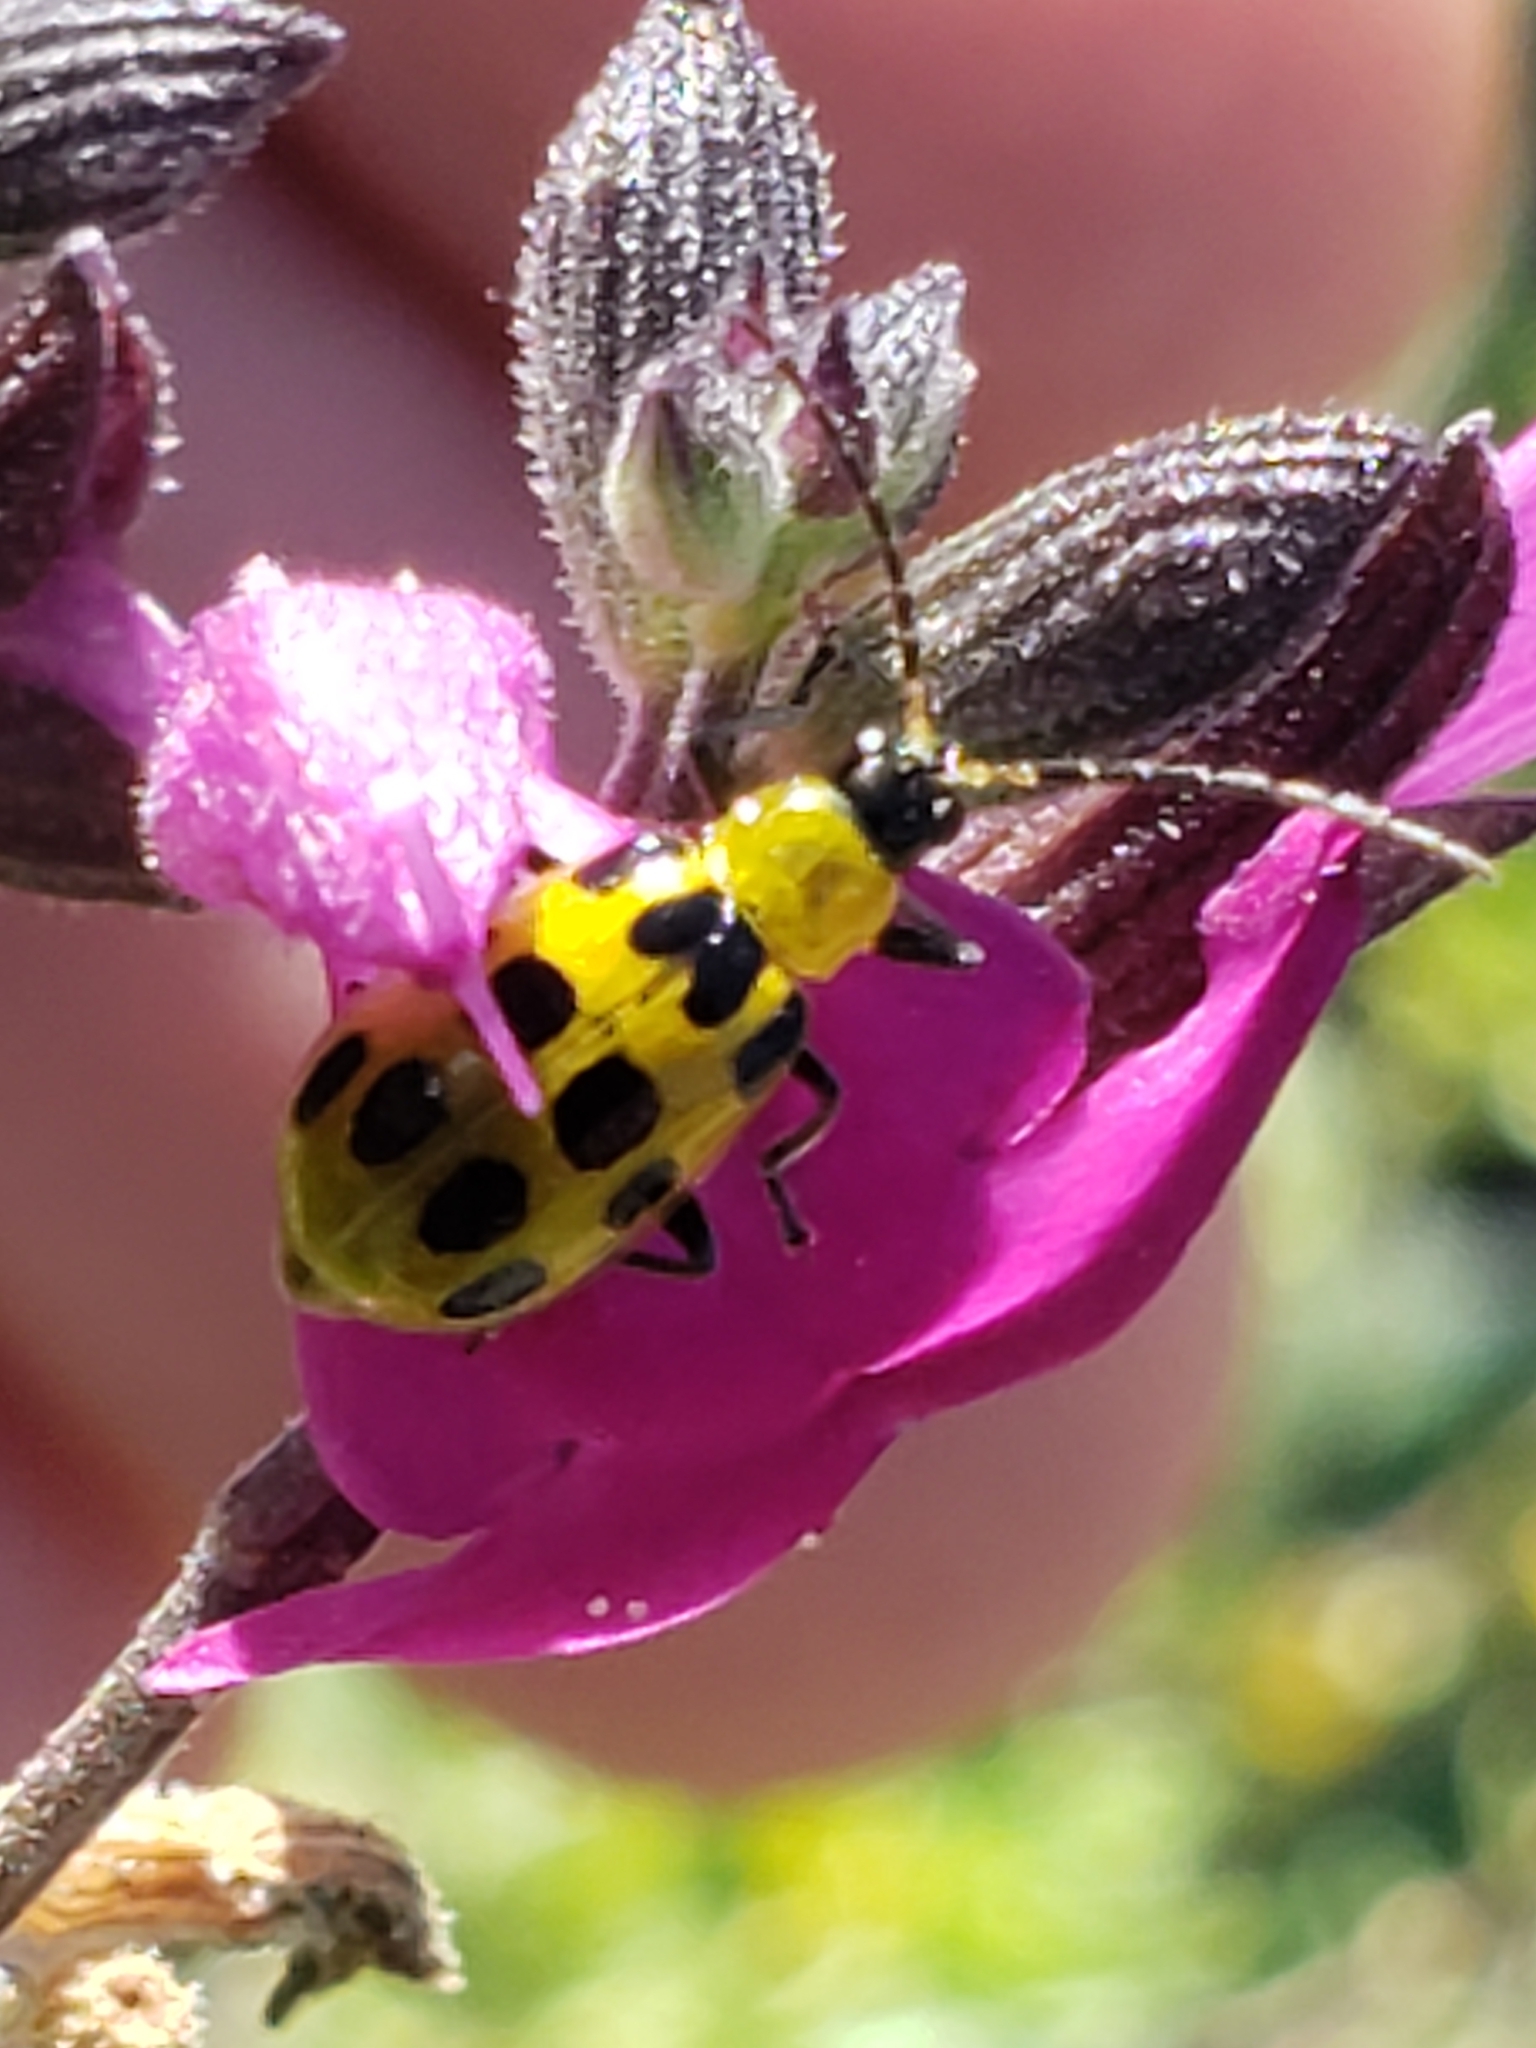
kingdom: Animalia
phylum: Arthropoda
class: Insecta
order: Coleoptera
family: Chrysomelidae
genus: Diabrotica
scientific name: Diabrotica undecimpunctata
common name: Spotted cucumber beetle
